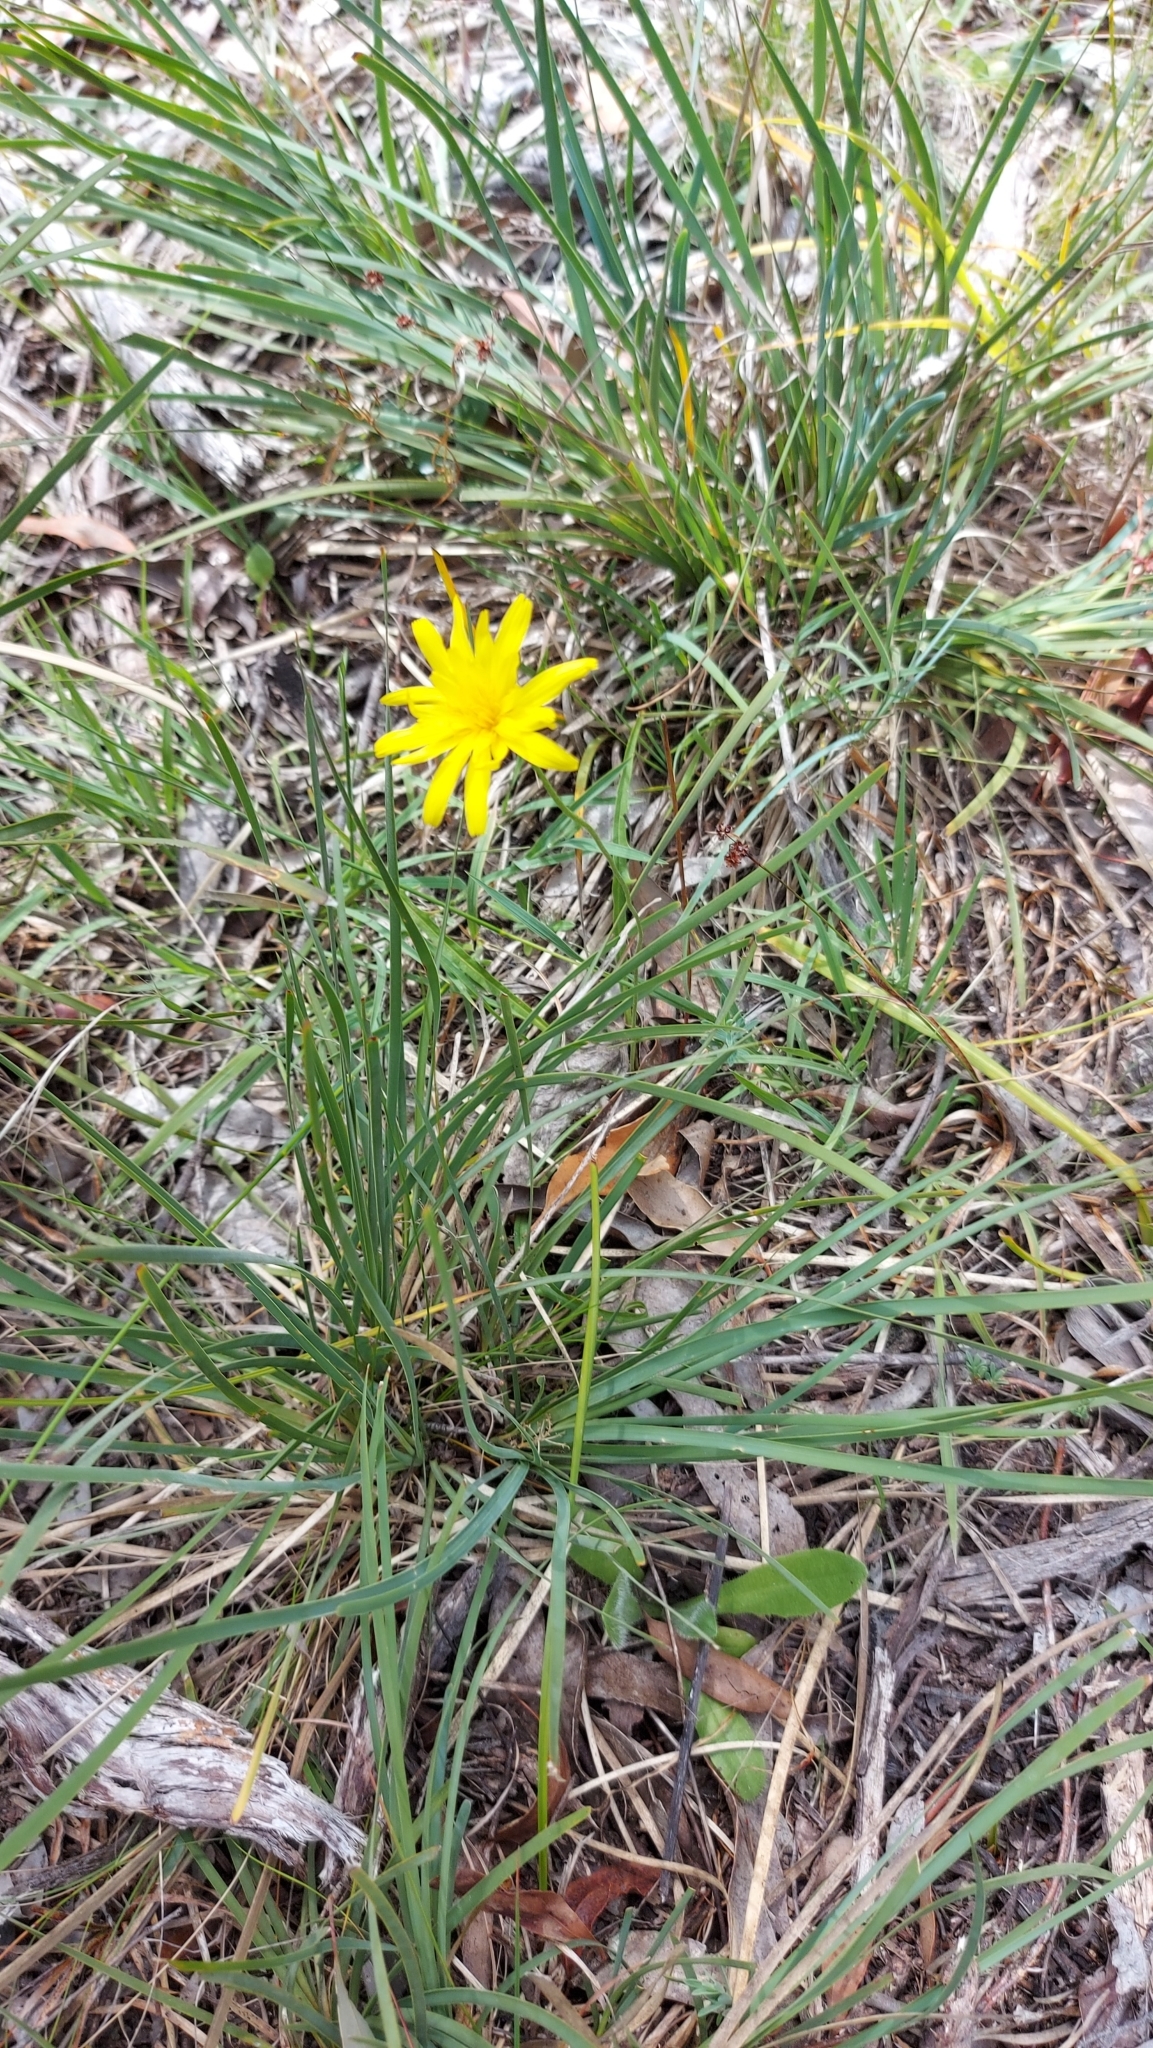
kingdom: Plantae
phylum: Tracheophyta
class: Magnoliopsida
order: Asterales
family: Asteraceae
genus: Microseris
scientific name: Microseris lanceolata
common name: Yam daisy
